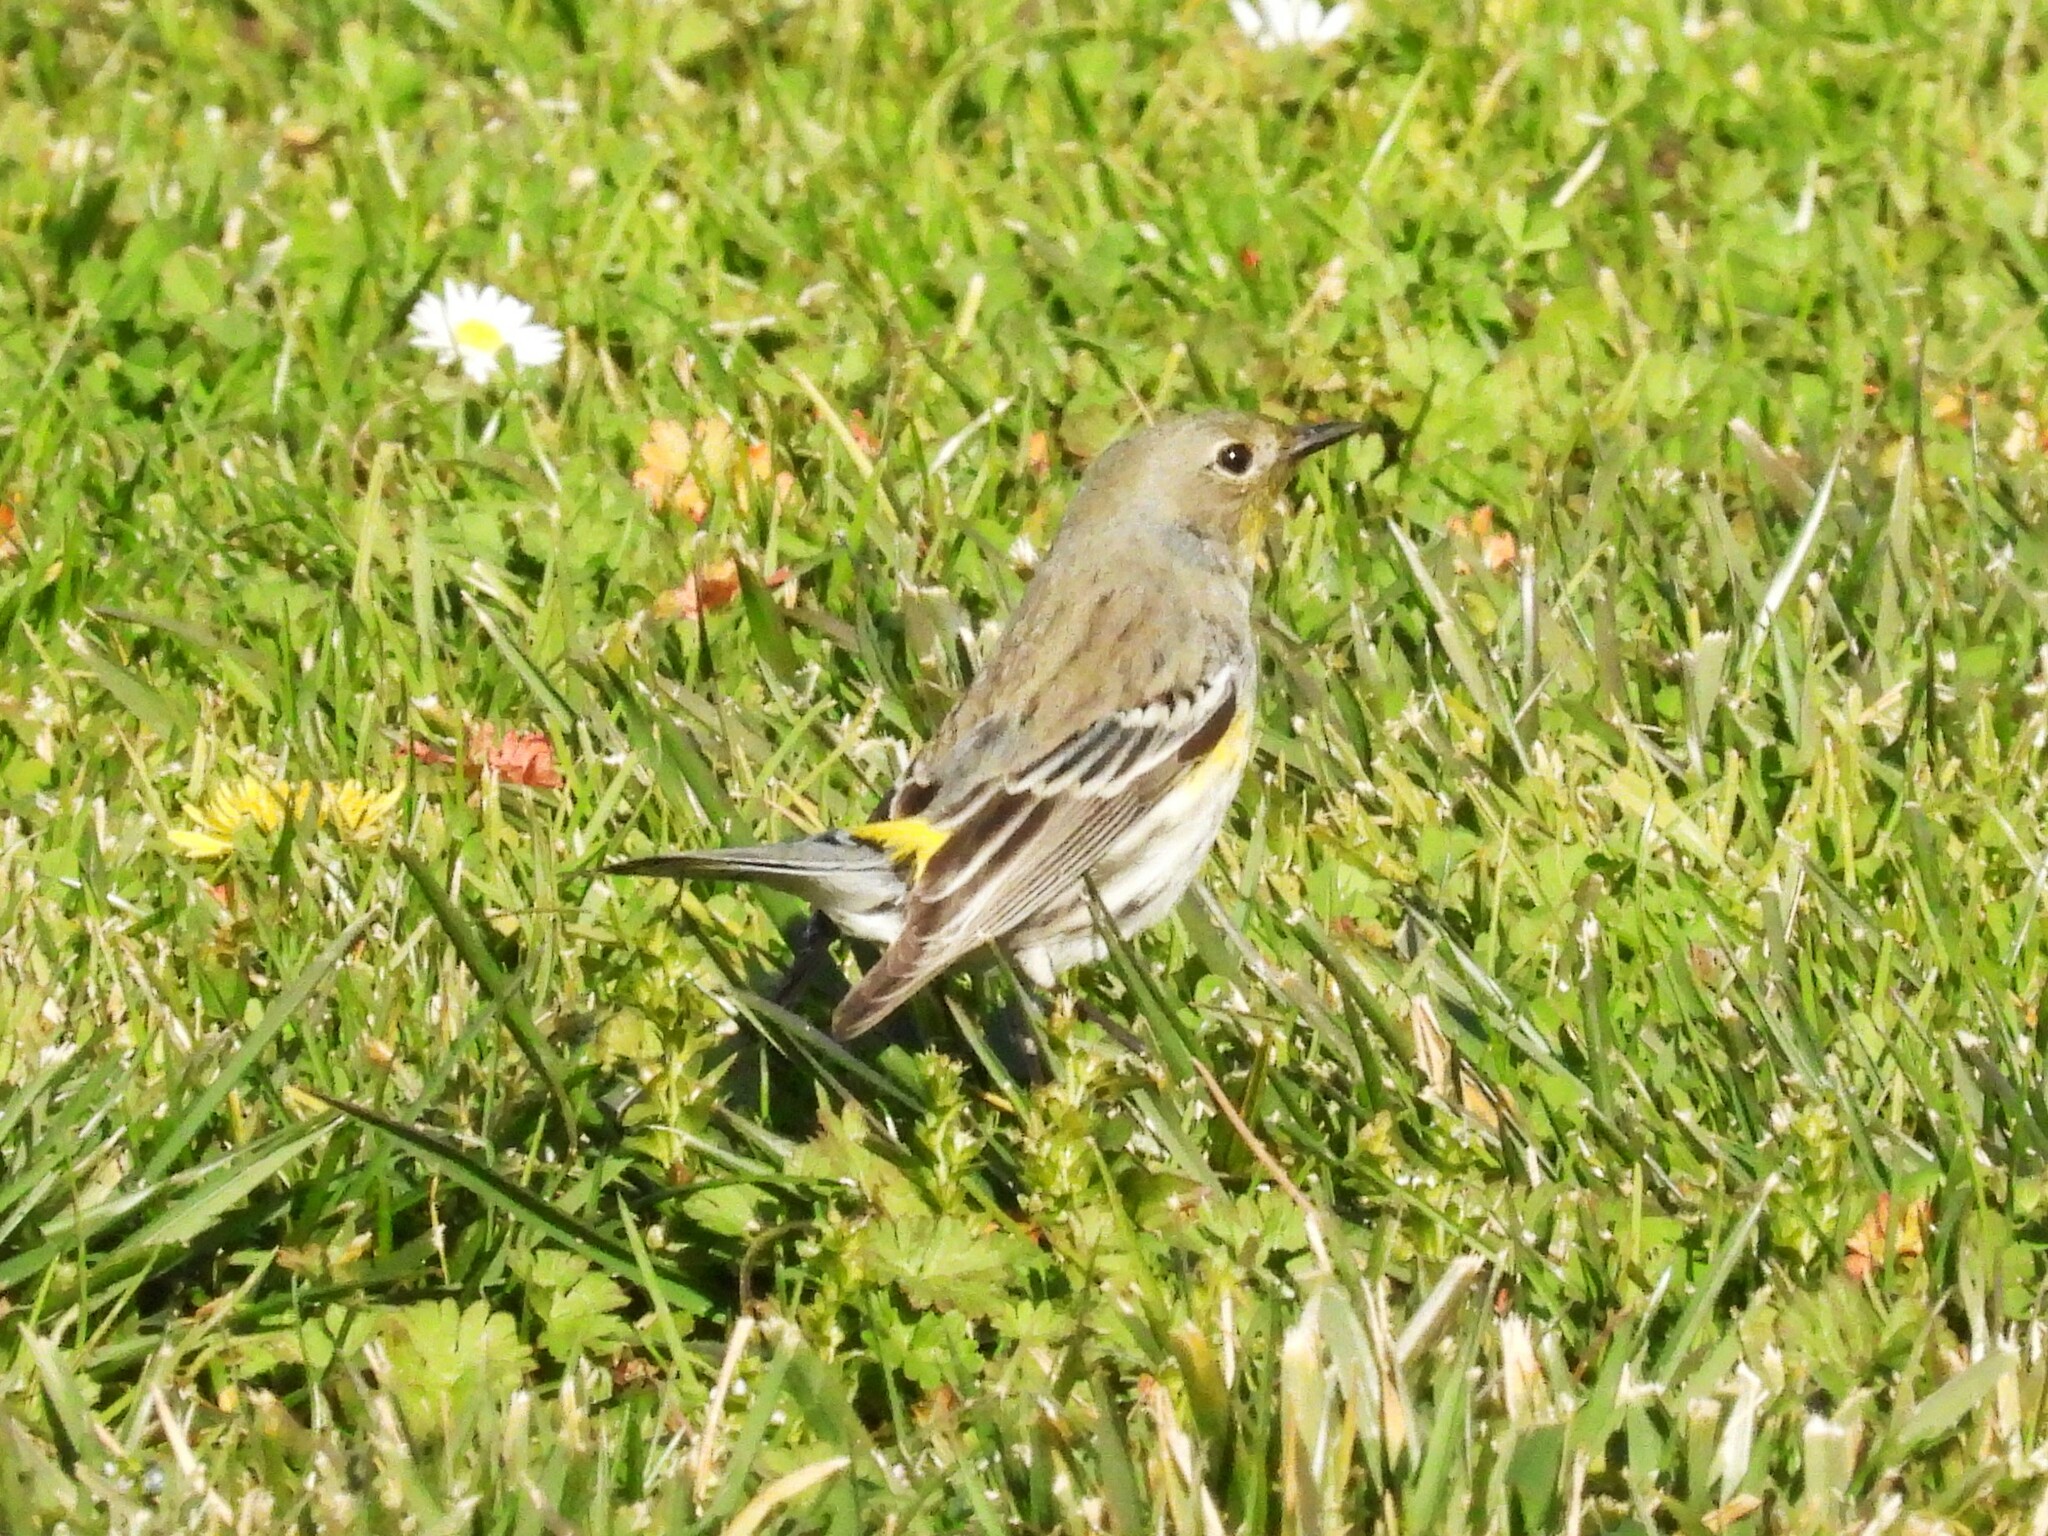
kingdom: Animalia
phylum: Chordata
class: Aves
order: Passeriformes
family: Parulidae
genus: Setophaga
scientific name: Setophaga coronata
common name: Myrtle warbler
